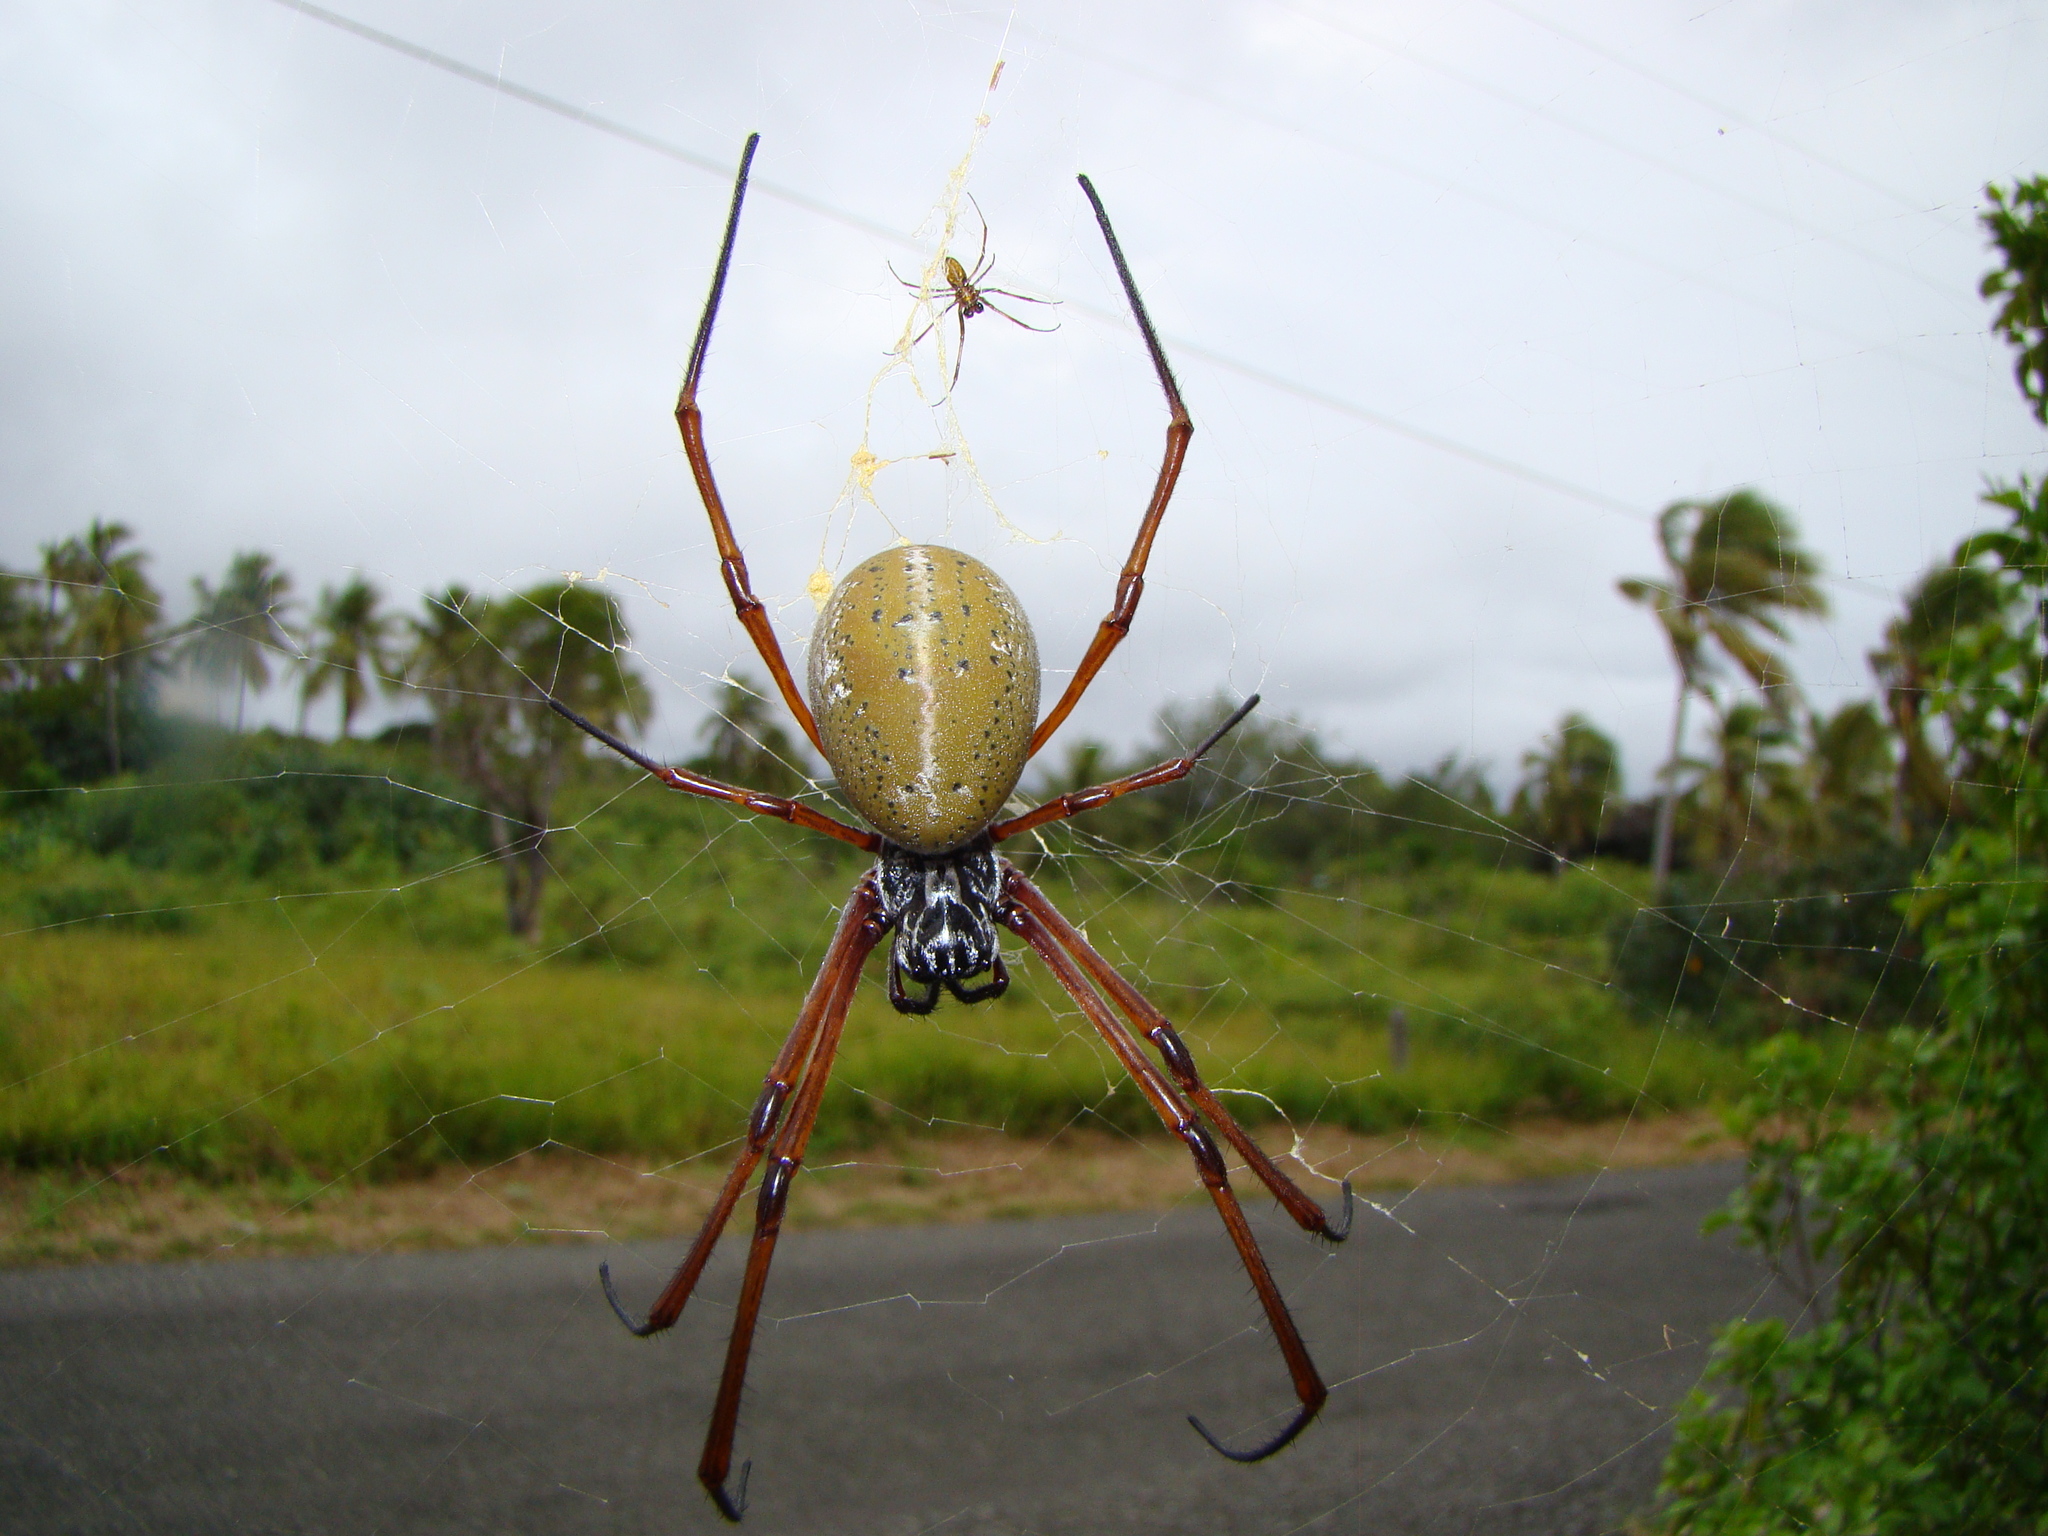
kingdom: Animalia
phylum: Arthropoda
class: Arachnida
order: Araneae
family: Araneidae
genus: Trichonephila
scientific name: Trichonephila plumipes
